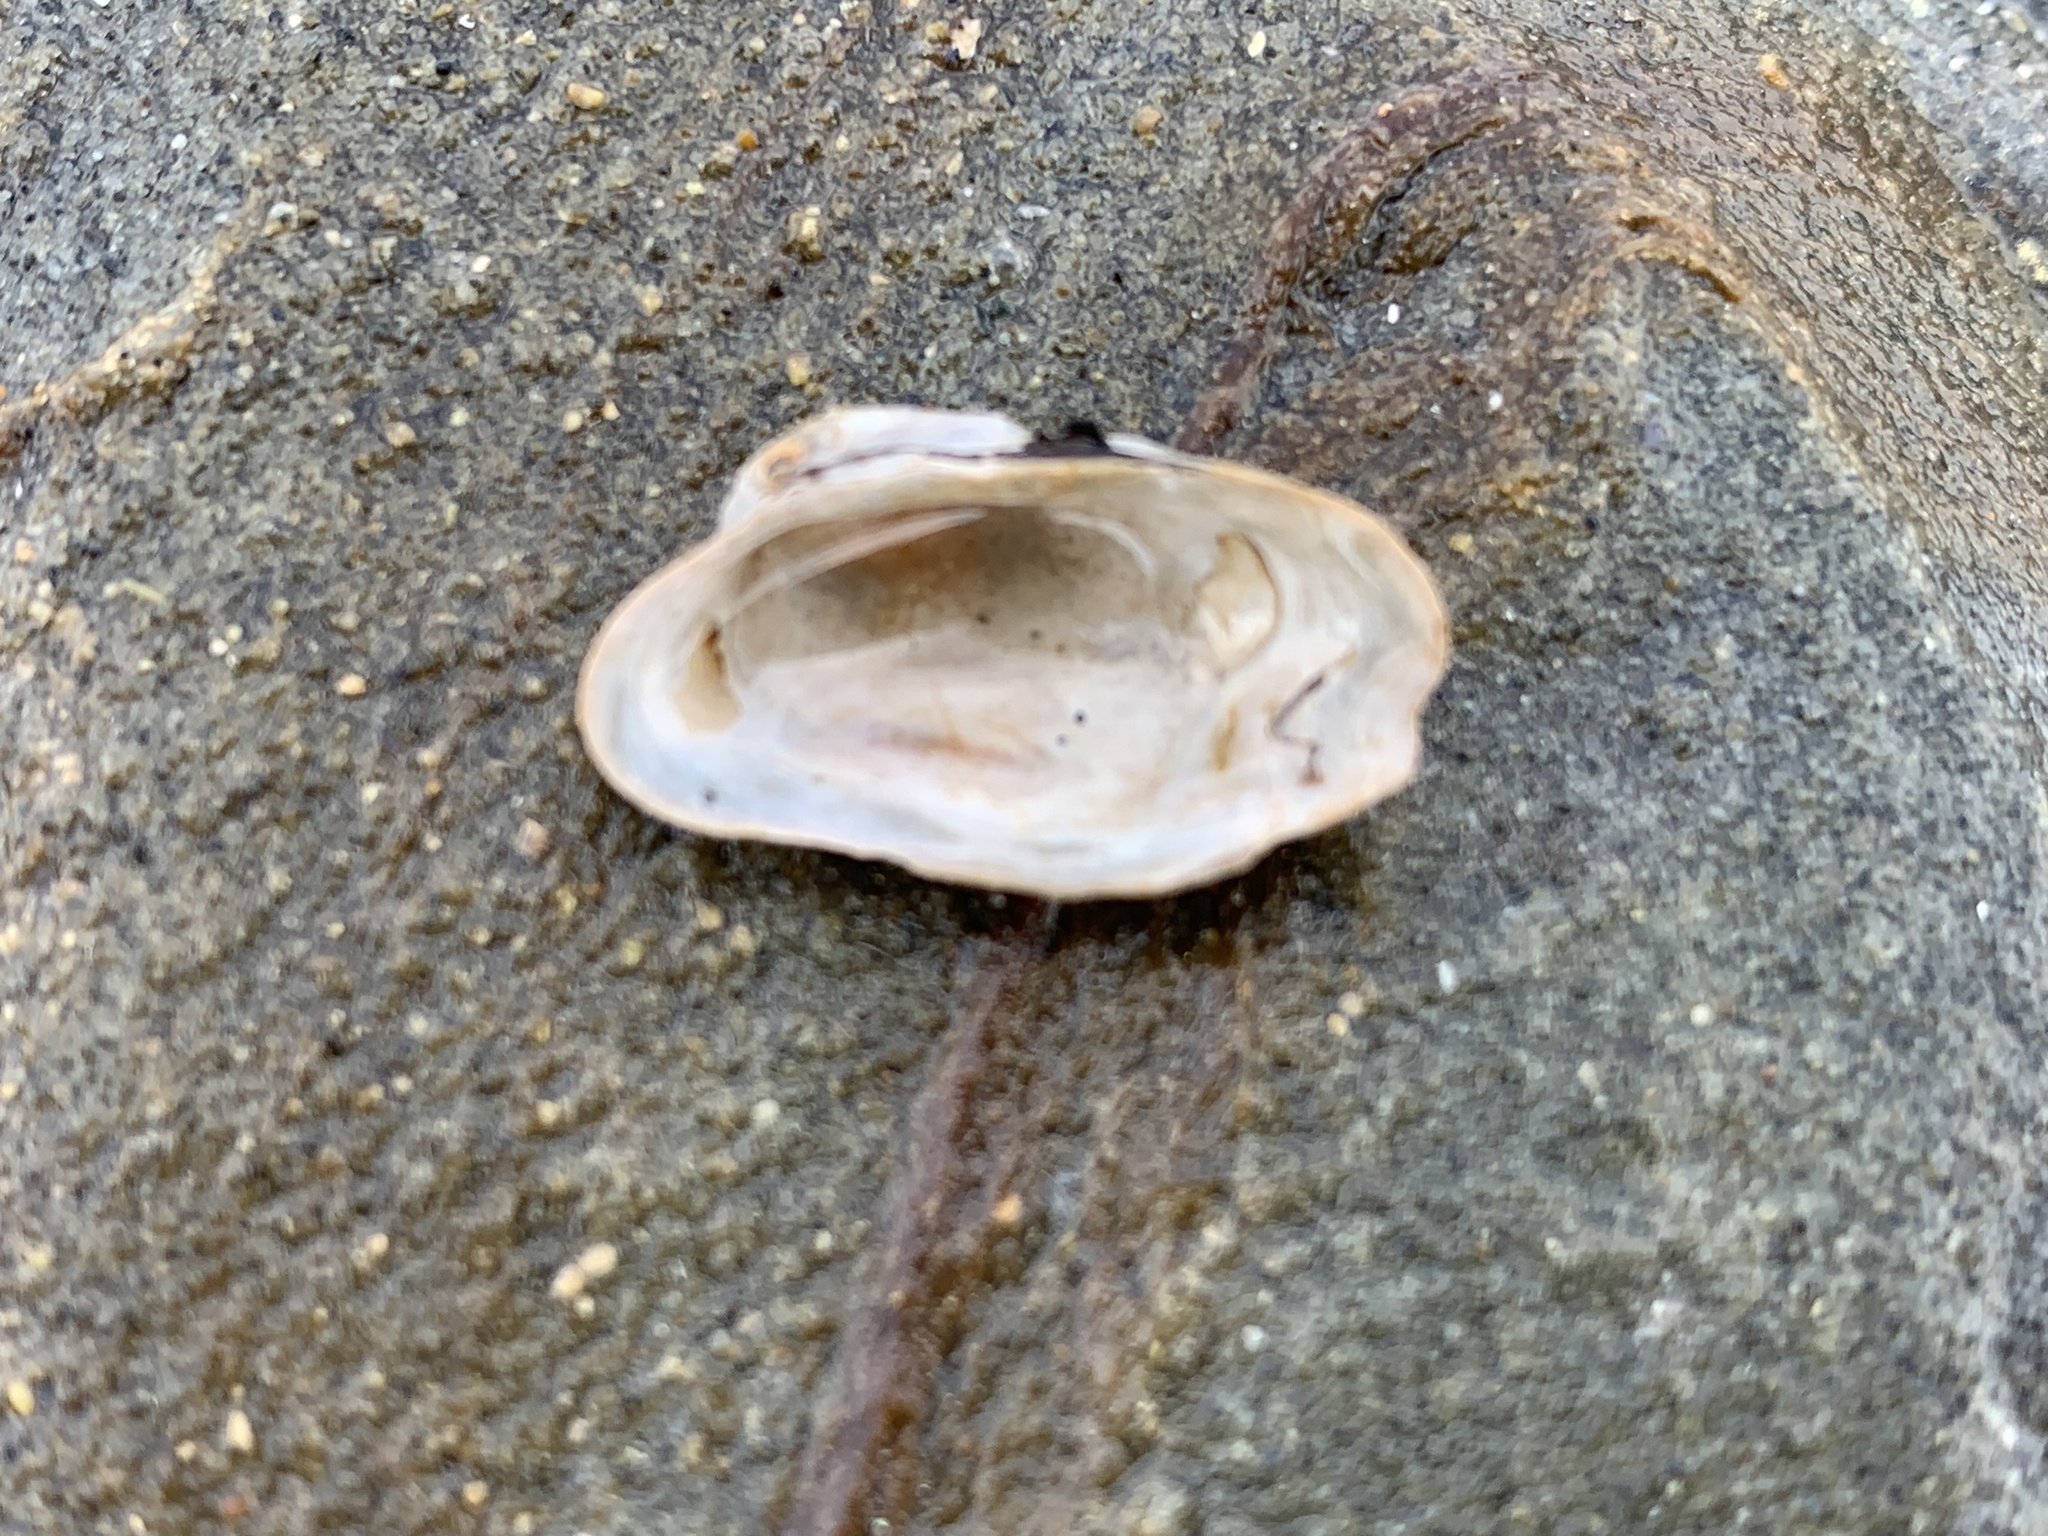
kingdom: Animalia
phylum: Mollusca
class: Bivalvia
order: Adapedonta
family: Hiatellidae
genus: Hiatella
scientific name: Hiatella arctica
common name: Arctic hiatella
